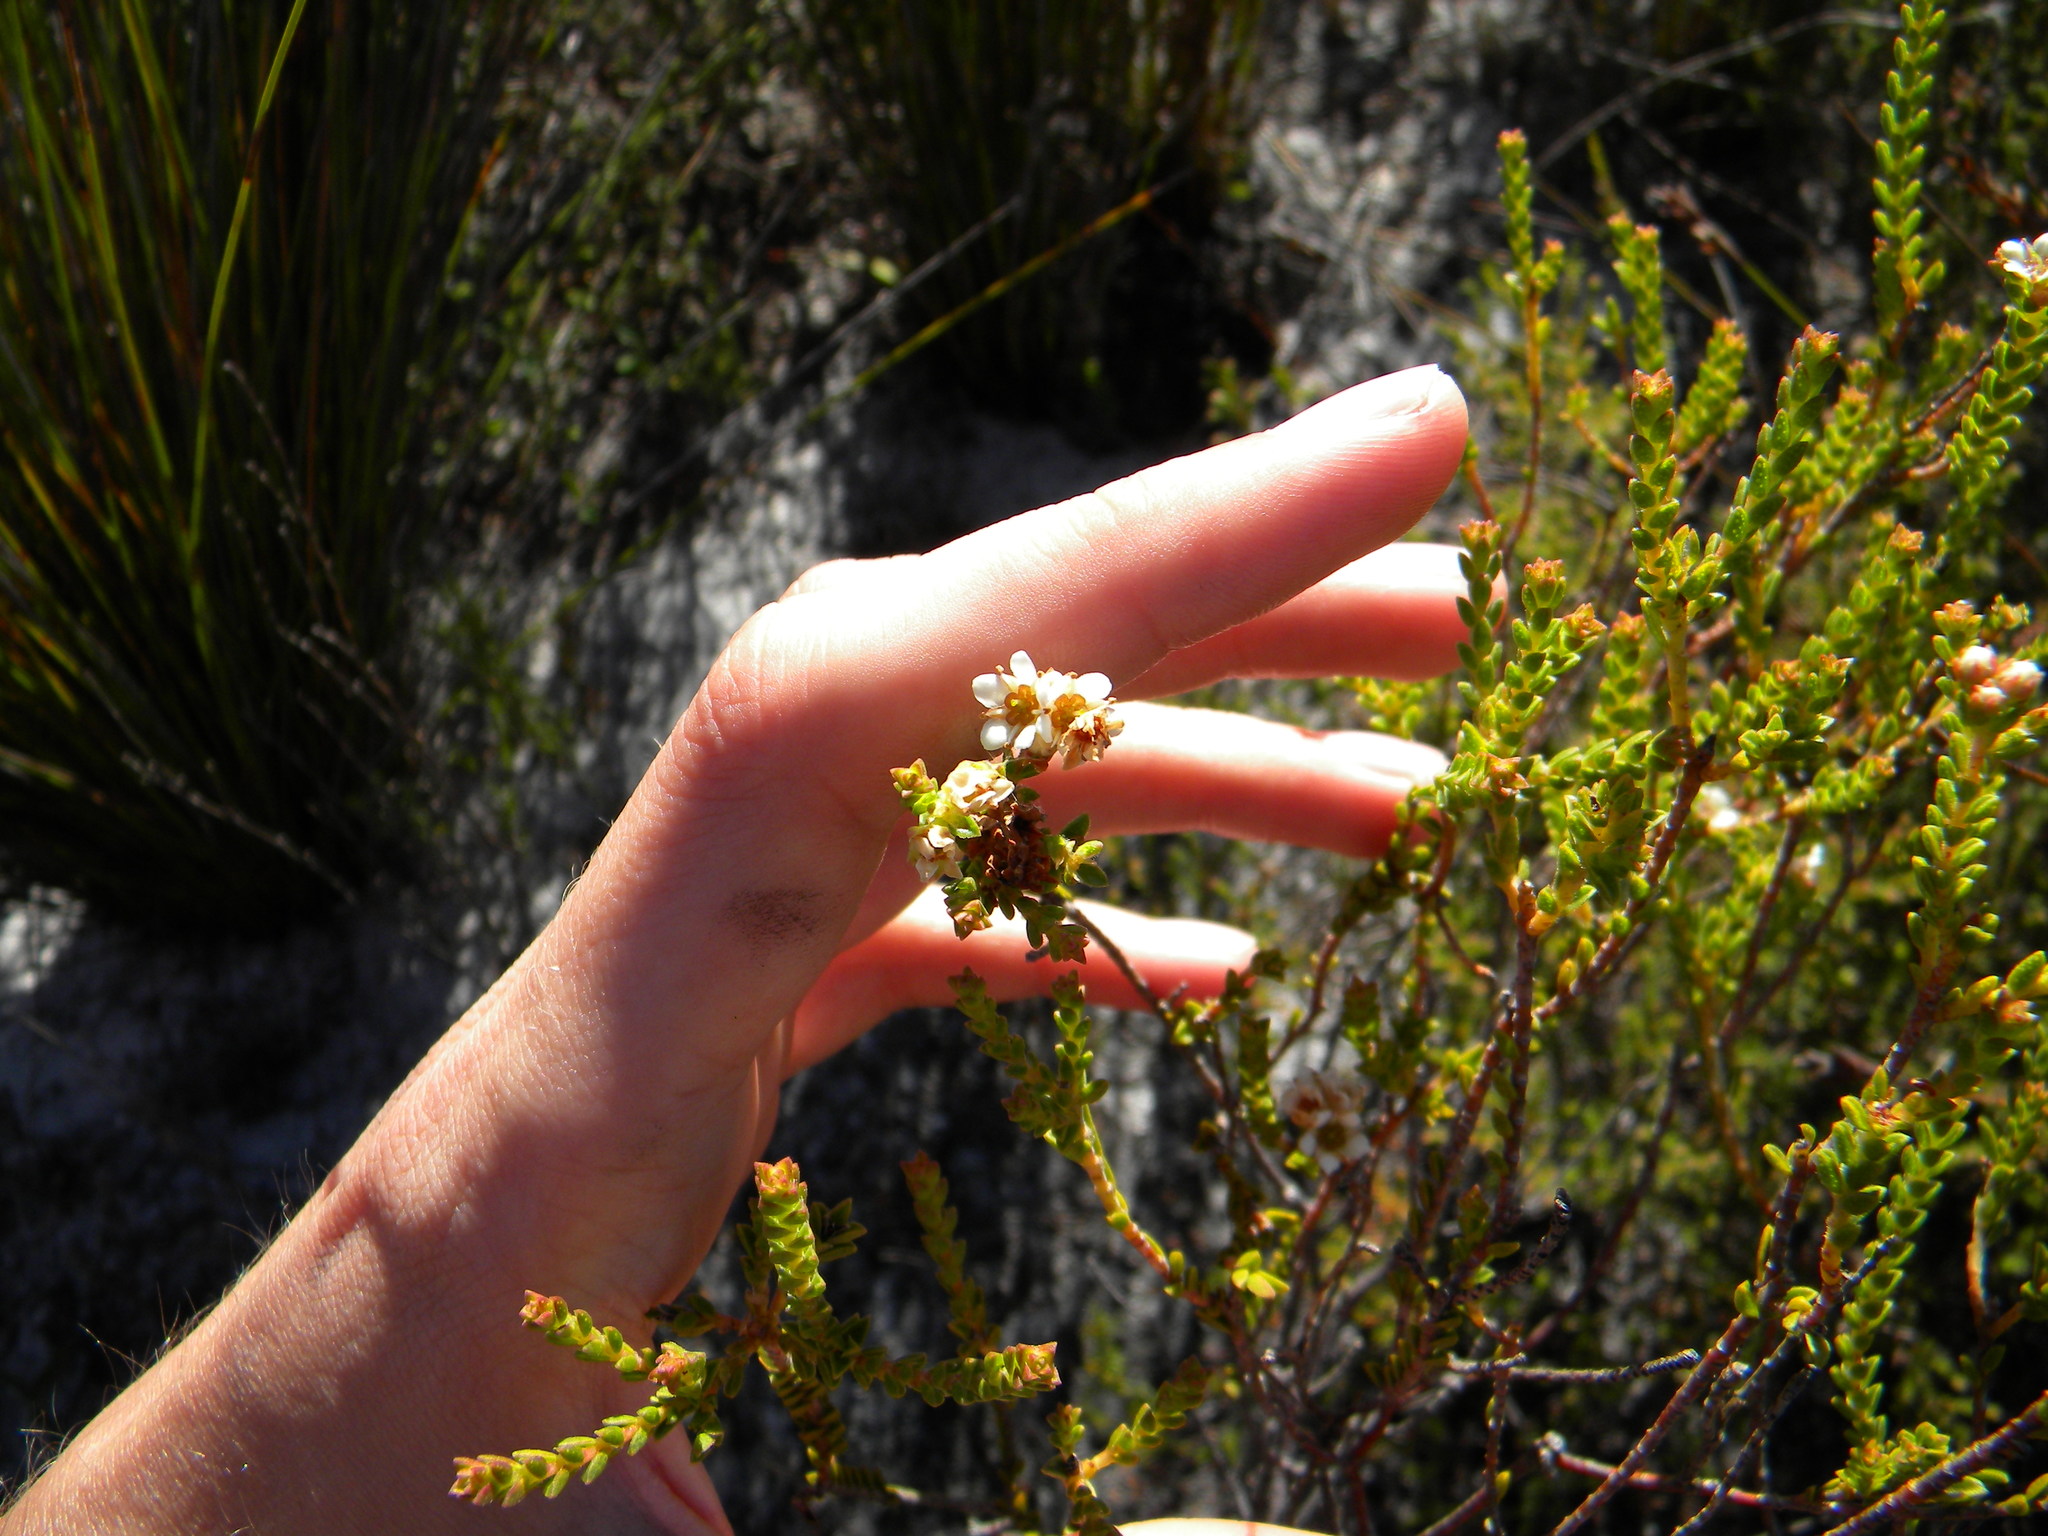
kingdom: Plantae
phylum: Tracheophyta
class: Magnoliopsida
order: Sapindales
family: Rutaceae
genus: Diosma
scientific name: Diosma oppositifolia
